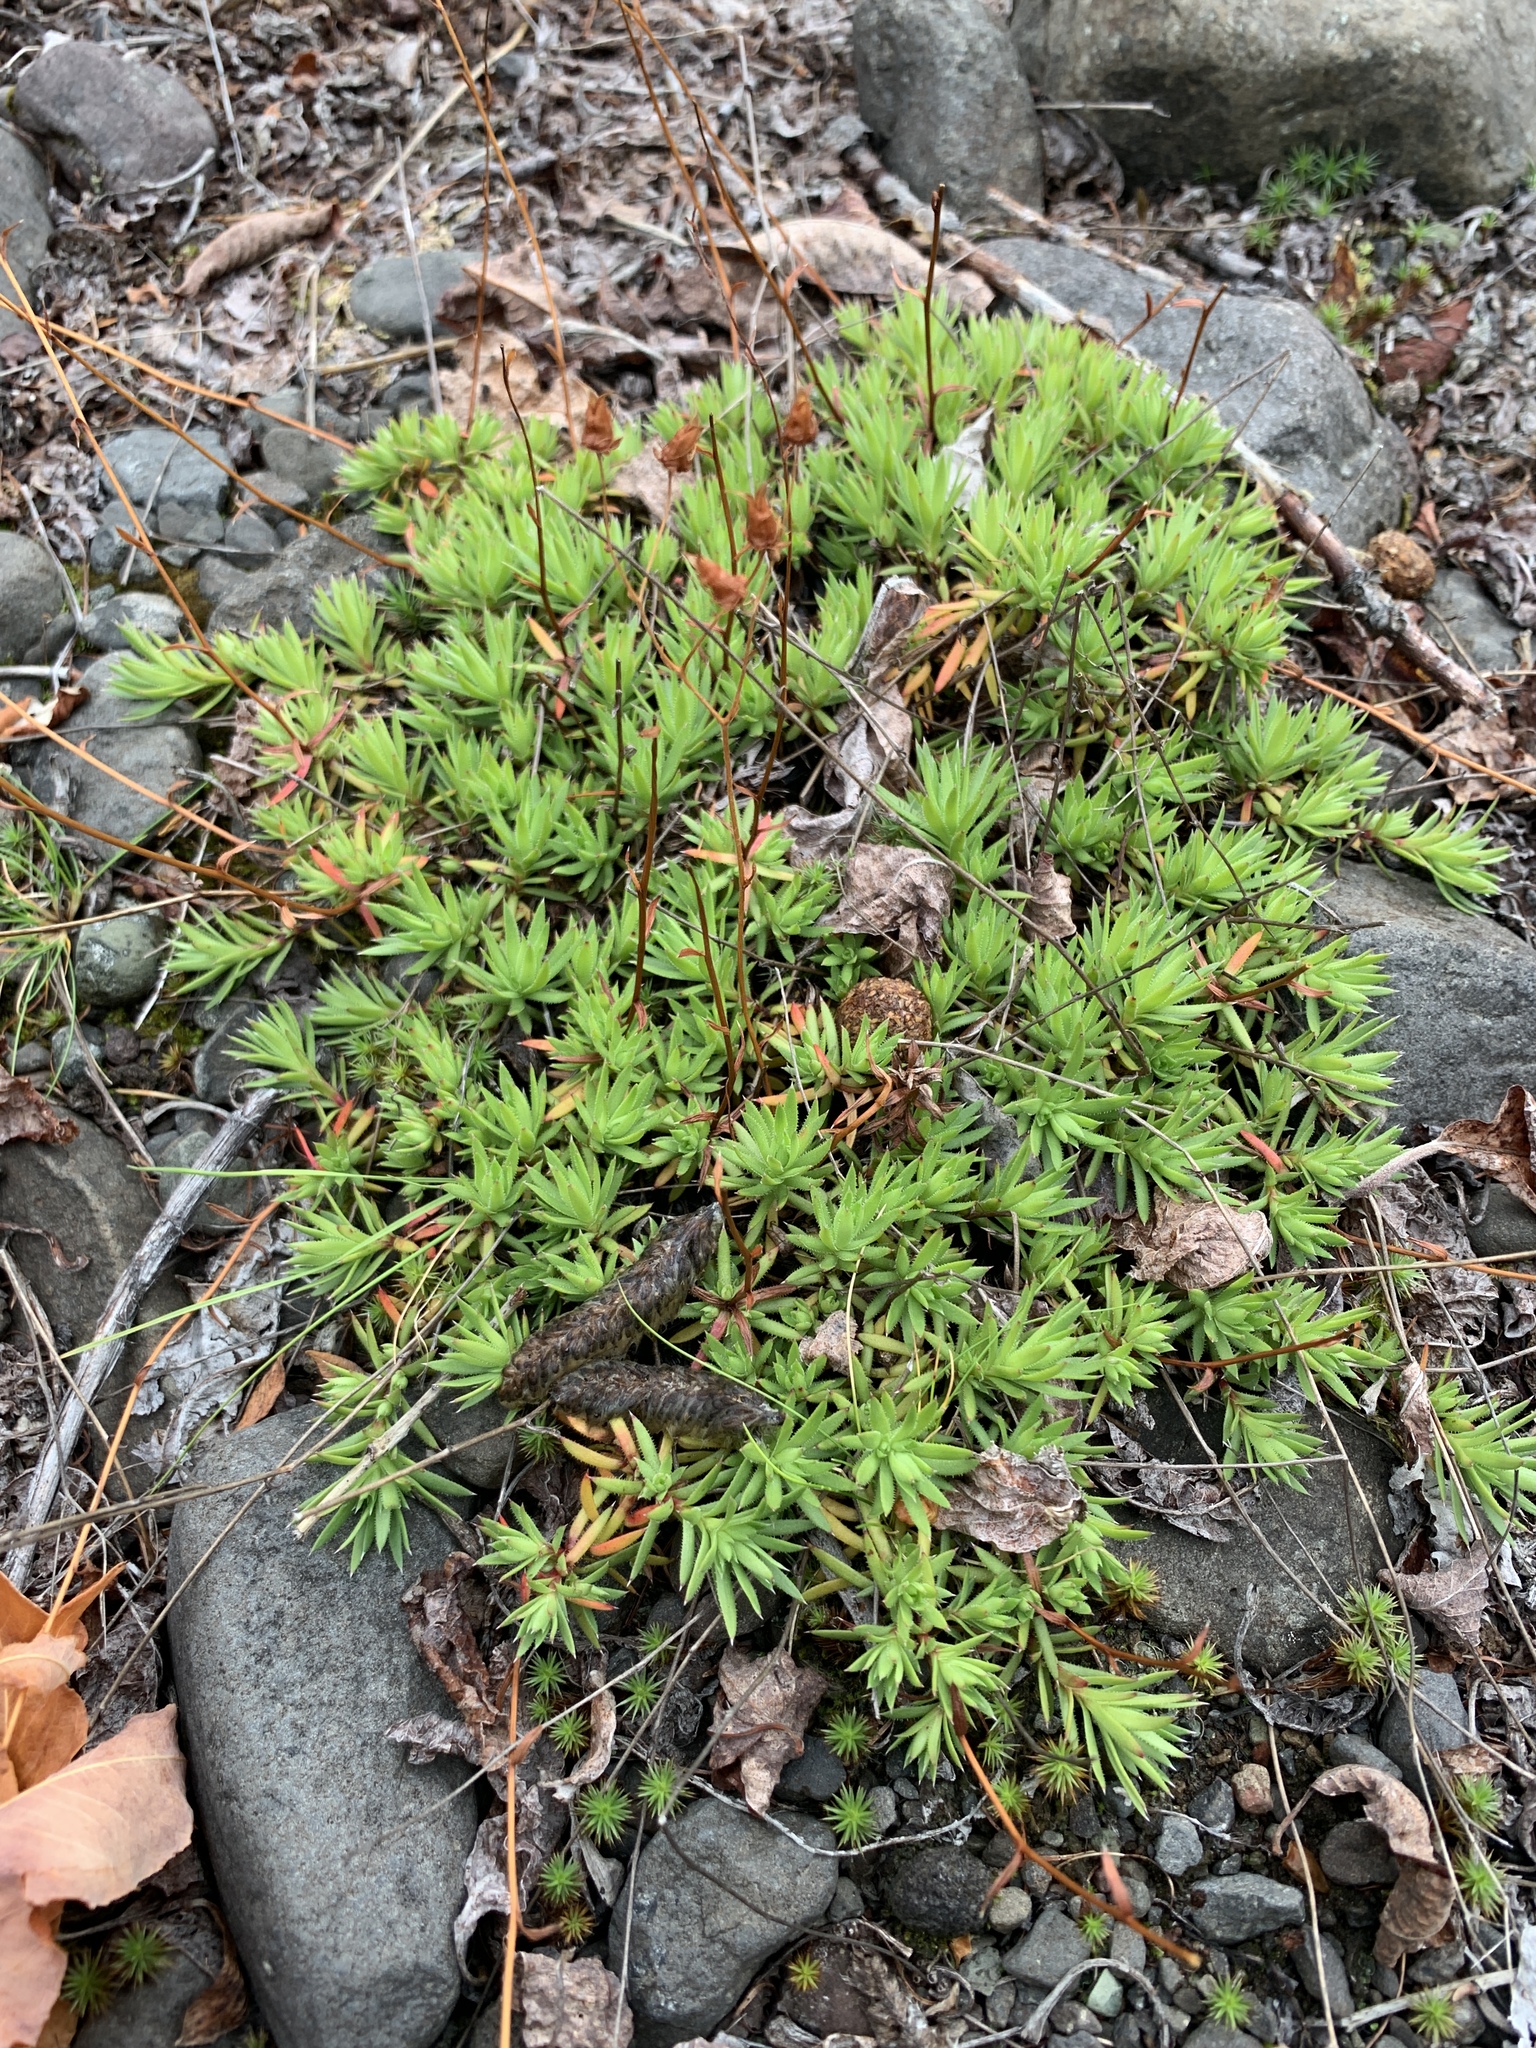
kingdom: Plantae
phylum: Tracheophyta
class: Magnoliopsida
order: Saxifragales
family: Saxifragaceae
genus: Saxifraga
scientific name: Saxifraga
